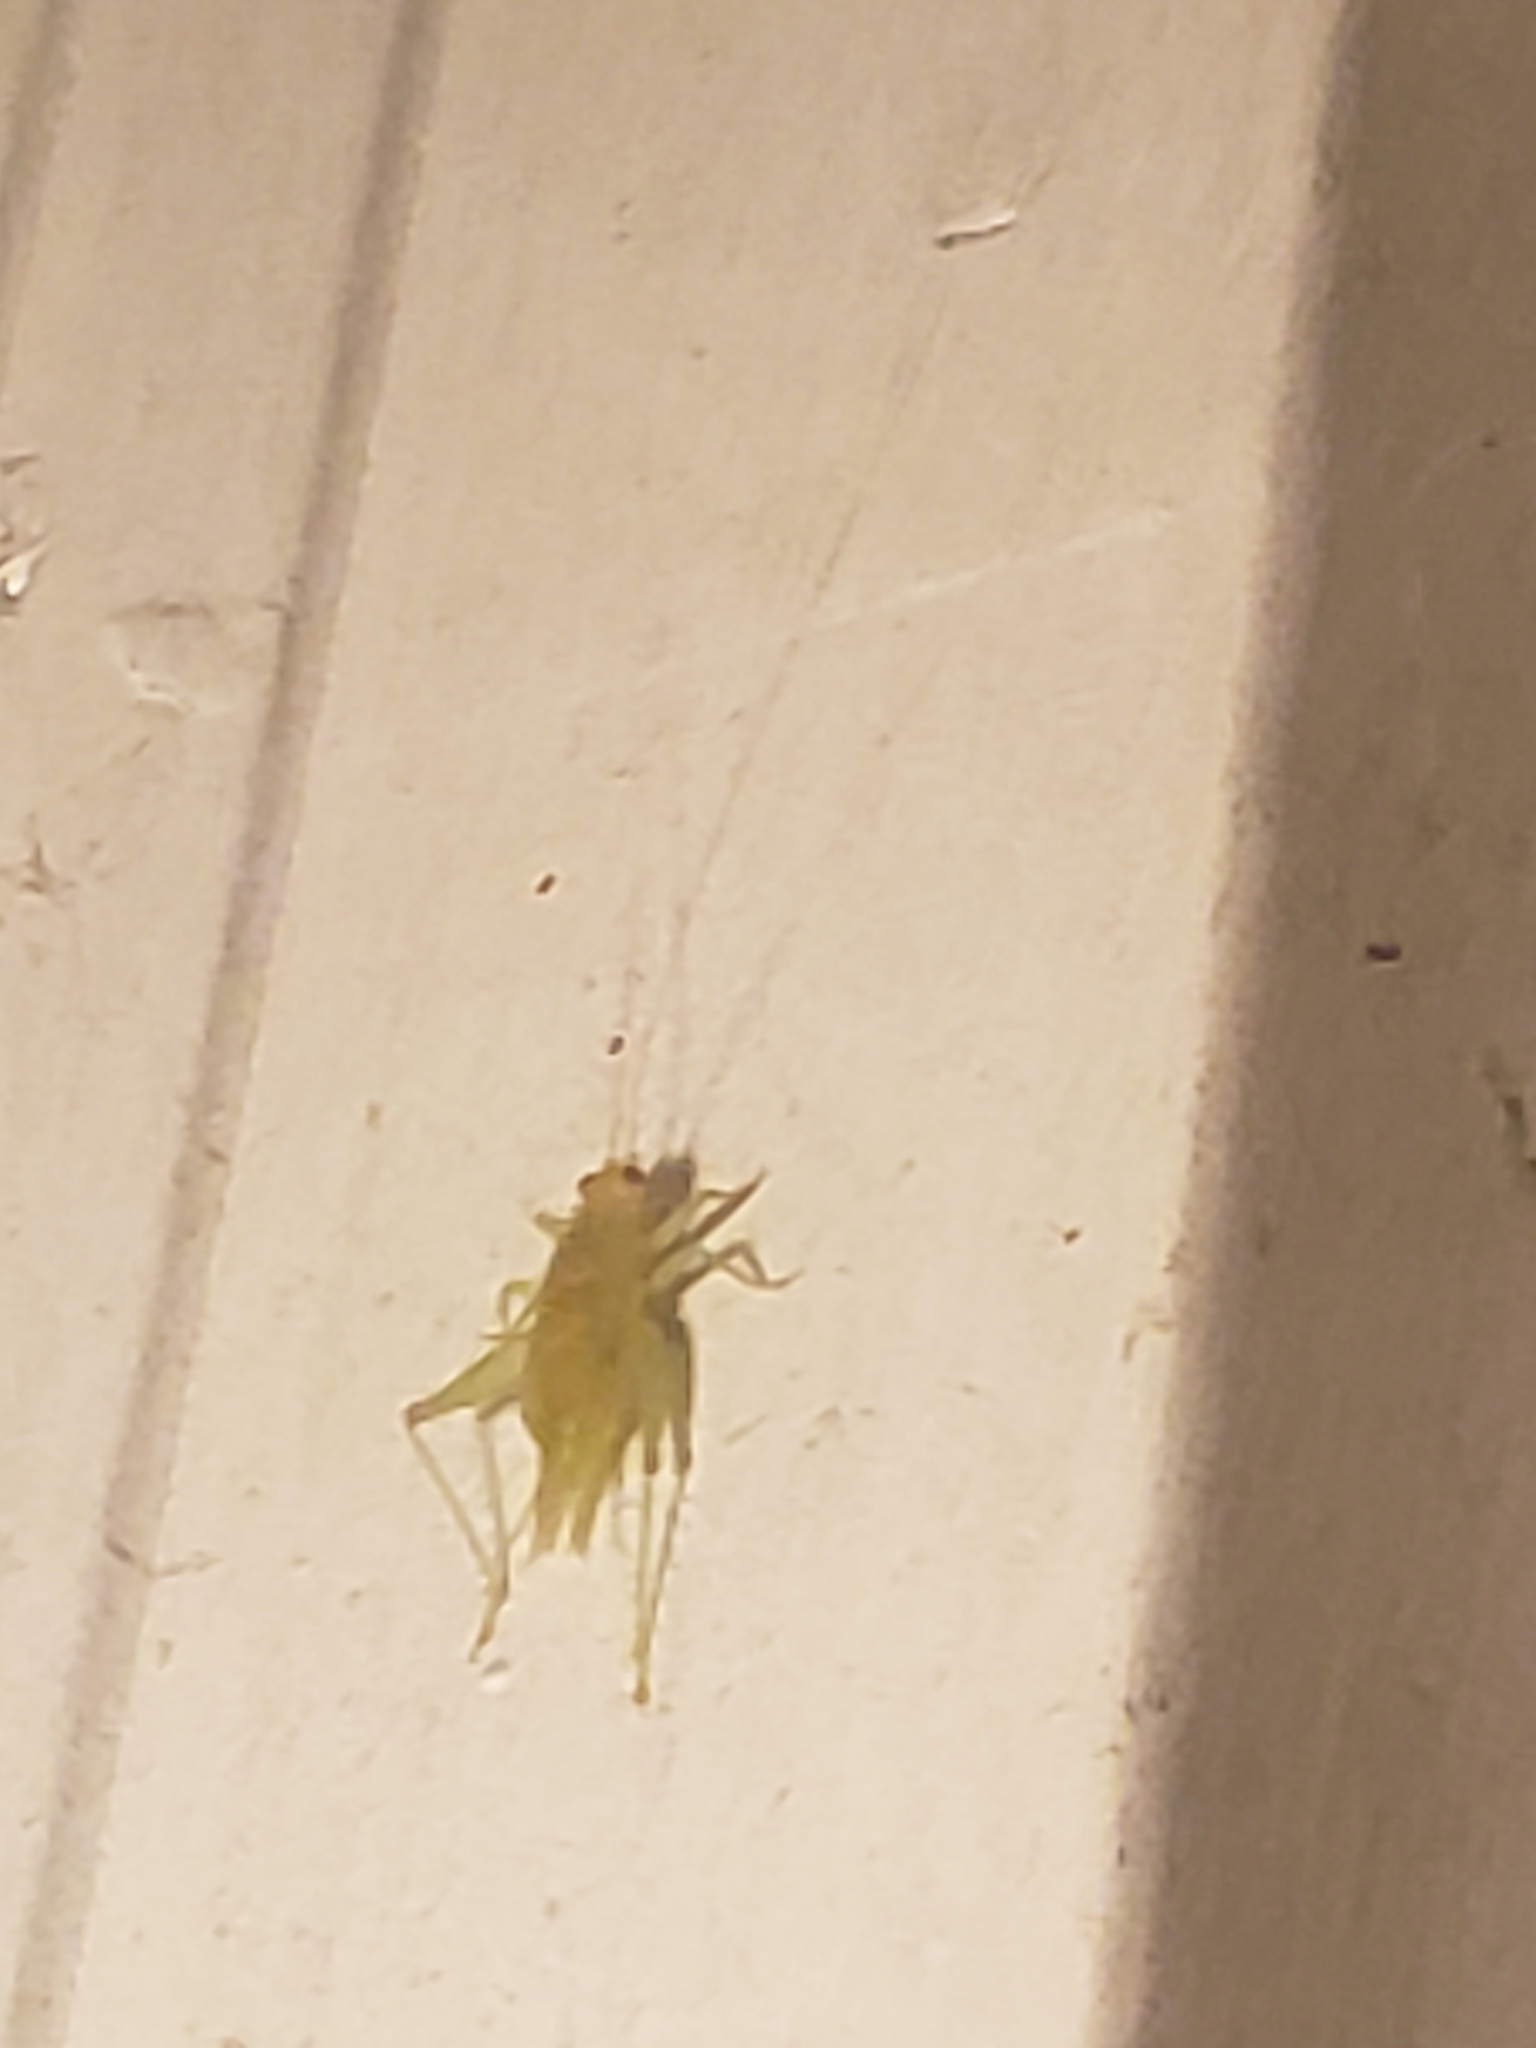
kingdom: Animalia
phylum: Arthropoda
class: Insecta
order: Orthoptera
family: Trigonidiidae
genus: Cyrtoxipha
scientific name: Cyrtoxipha columbiana
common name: Columbian trig
